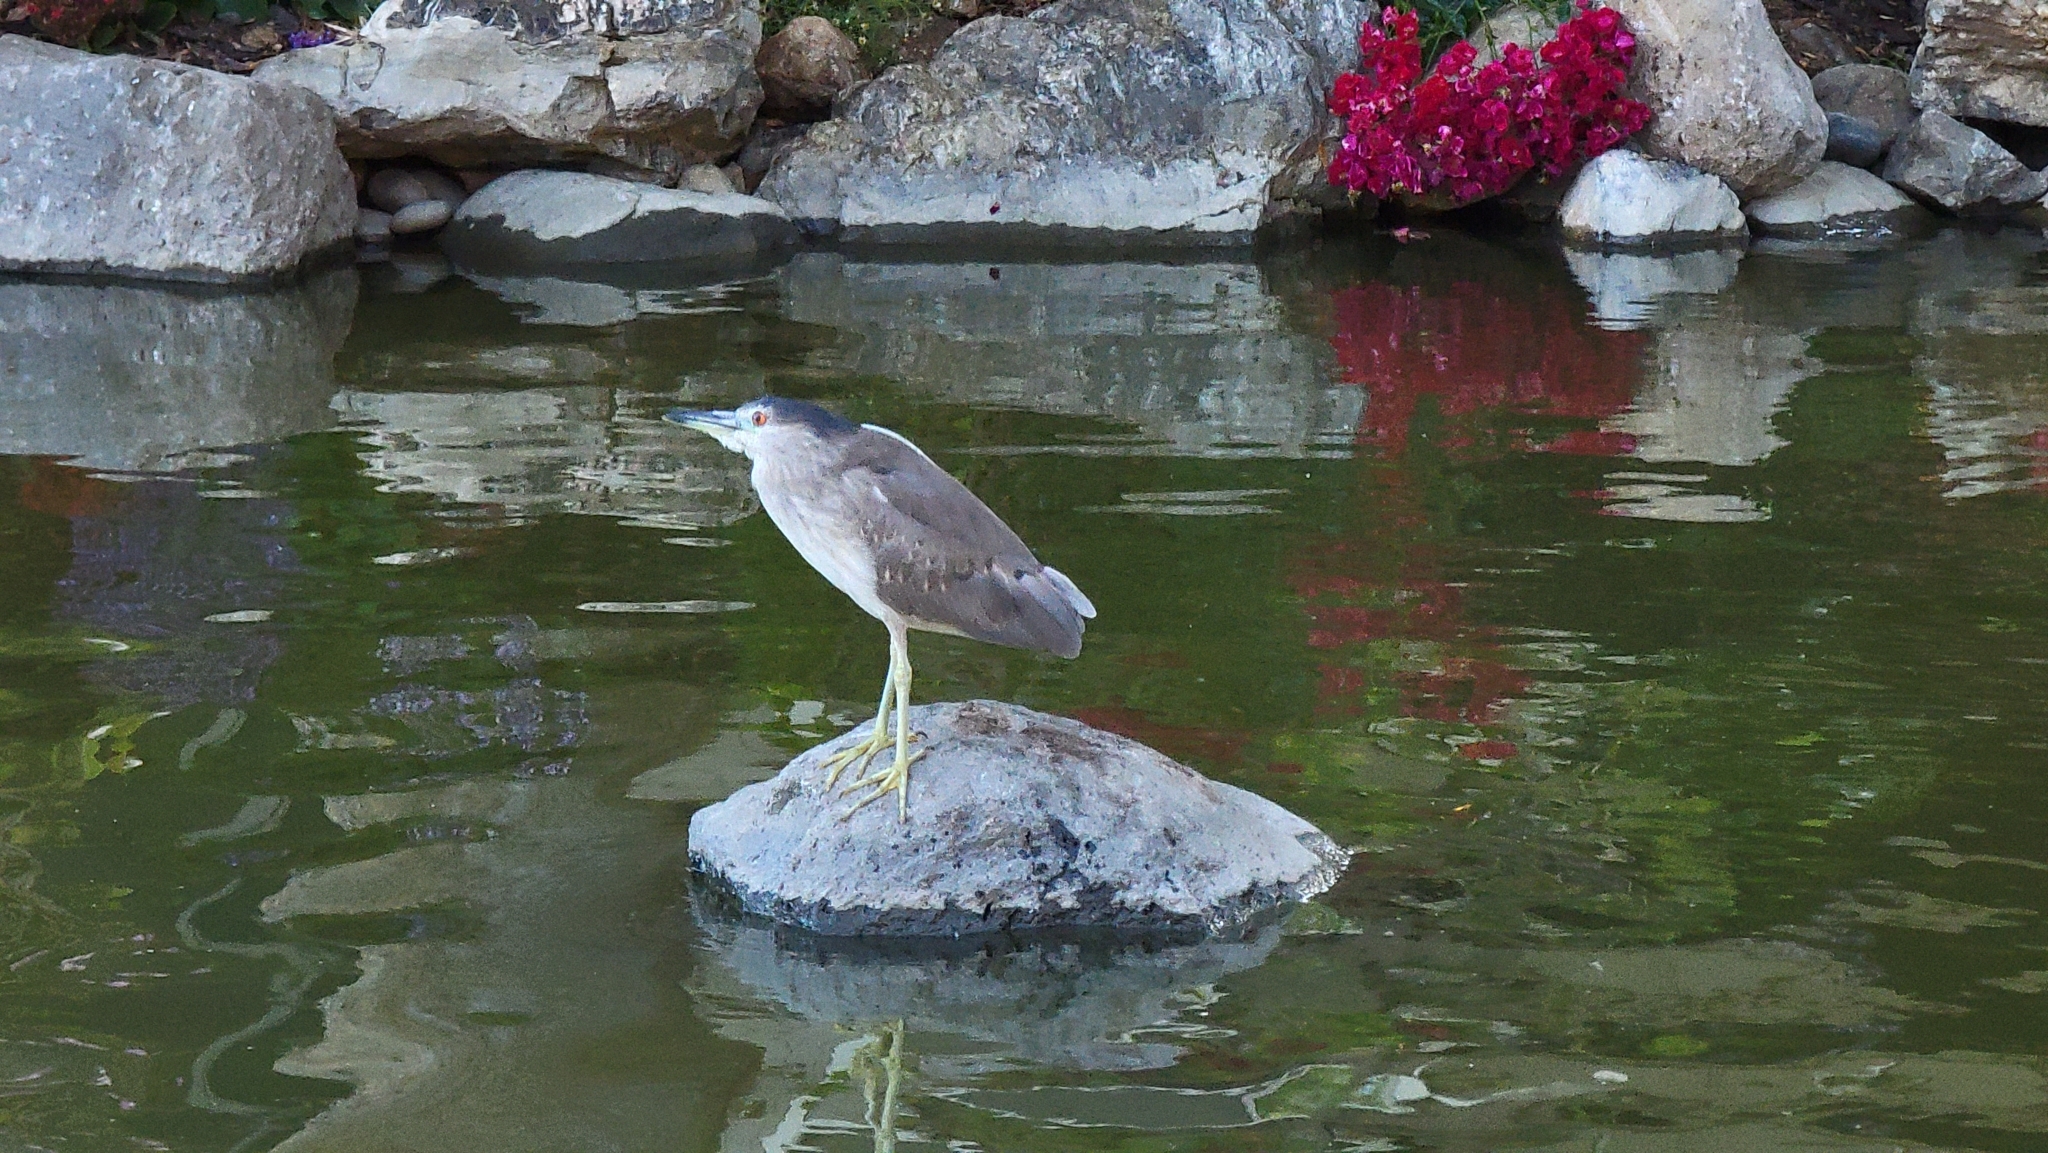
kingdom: Animalia
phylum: Chordata
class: Aves
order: Pelecaniformes
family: Ardeidae
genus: Nycticorax
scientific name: Nycticorax nycticorax
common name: Black-crowned night heron
